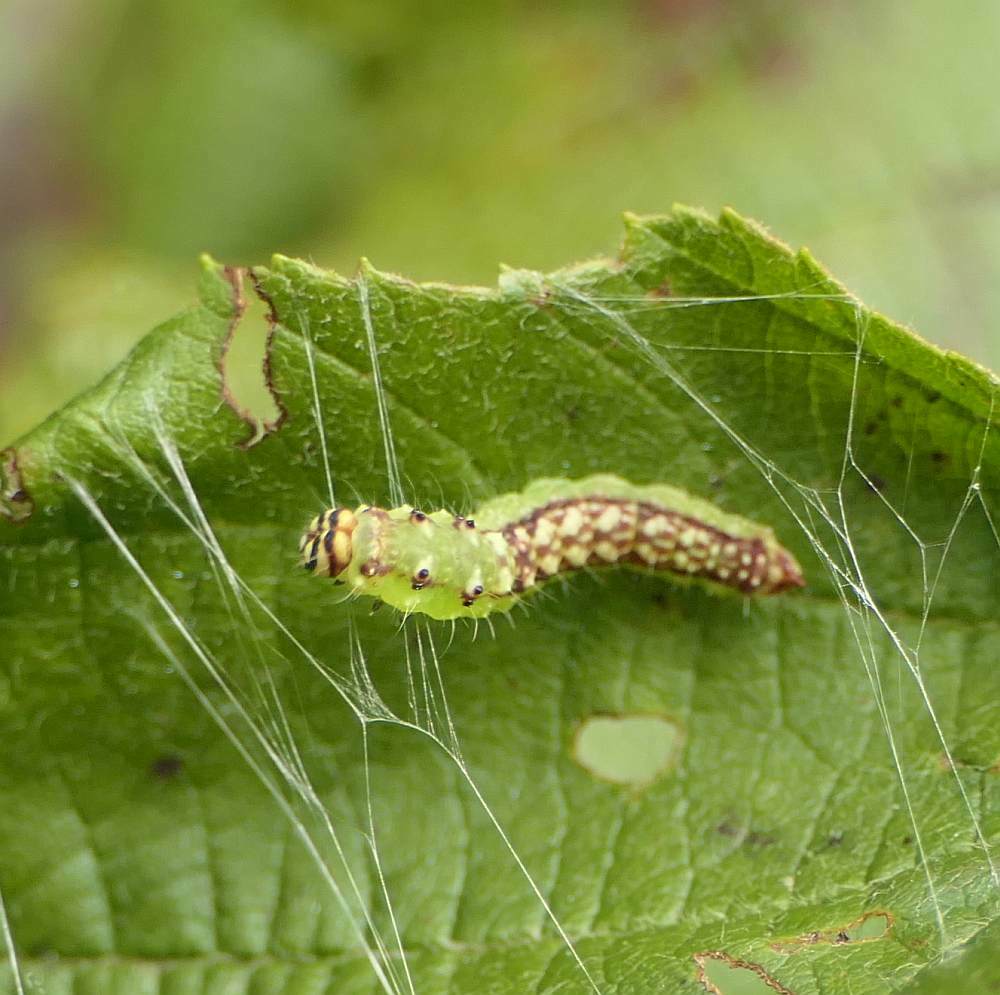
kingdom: Animalia
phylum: Arthropoda
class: Insecta
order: Lepidoptera
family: Drepanidae
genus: Drepana
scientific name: Drepana arcuata
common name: Arched hooktip moth
